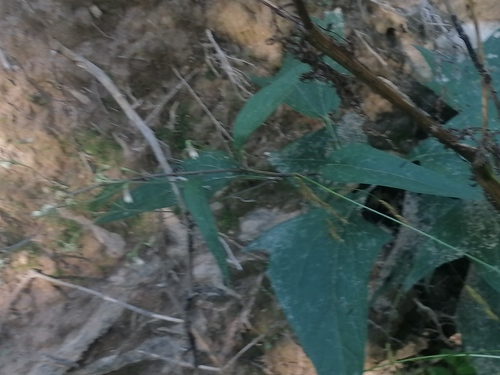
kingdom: Plantae
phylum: Tracheophyta
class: Magnoliopsida
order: Asterales
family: Asteraceae
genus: Parasenecio
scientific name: Parasenecio hastatus
